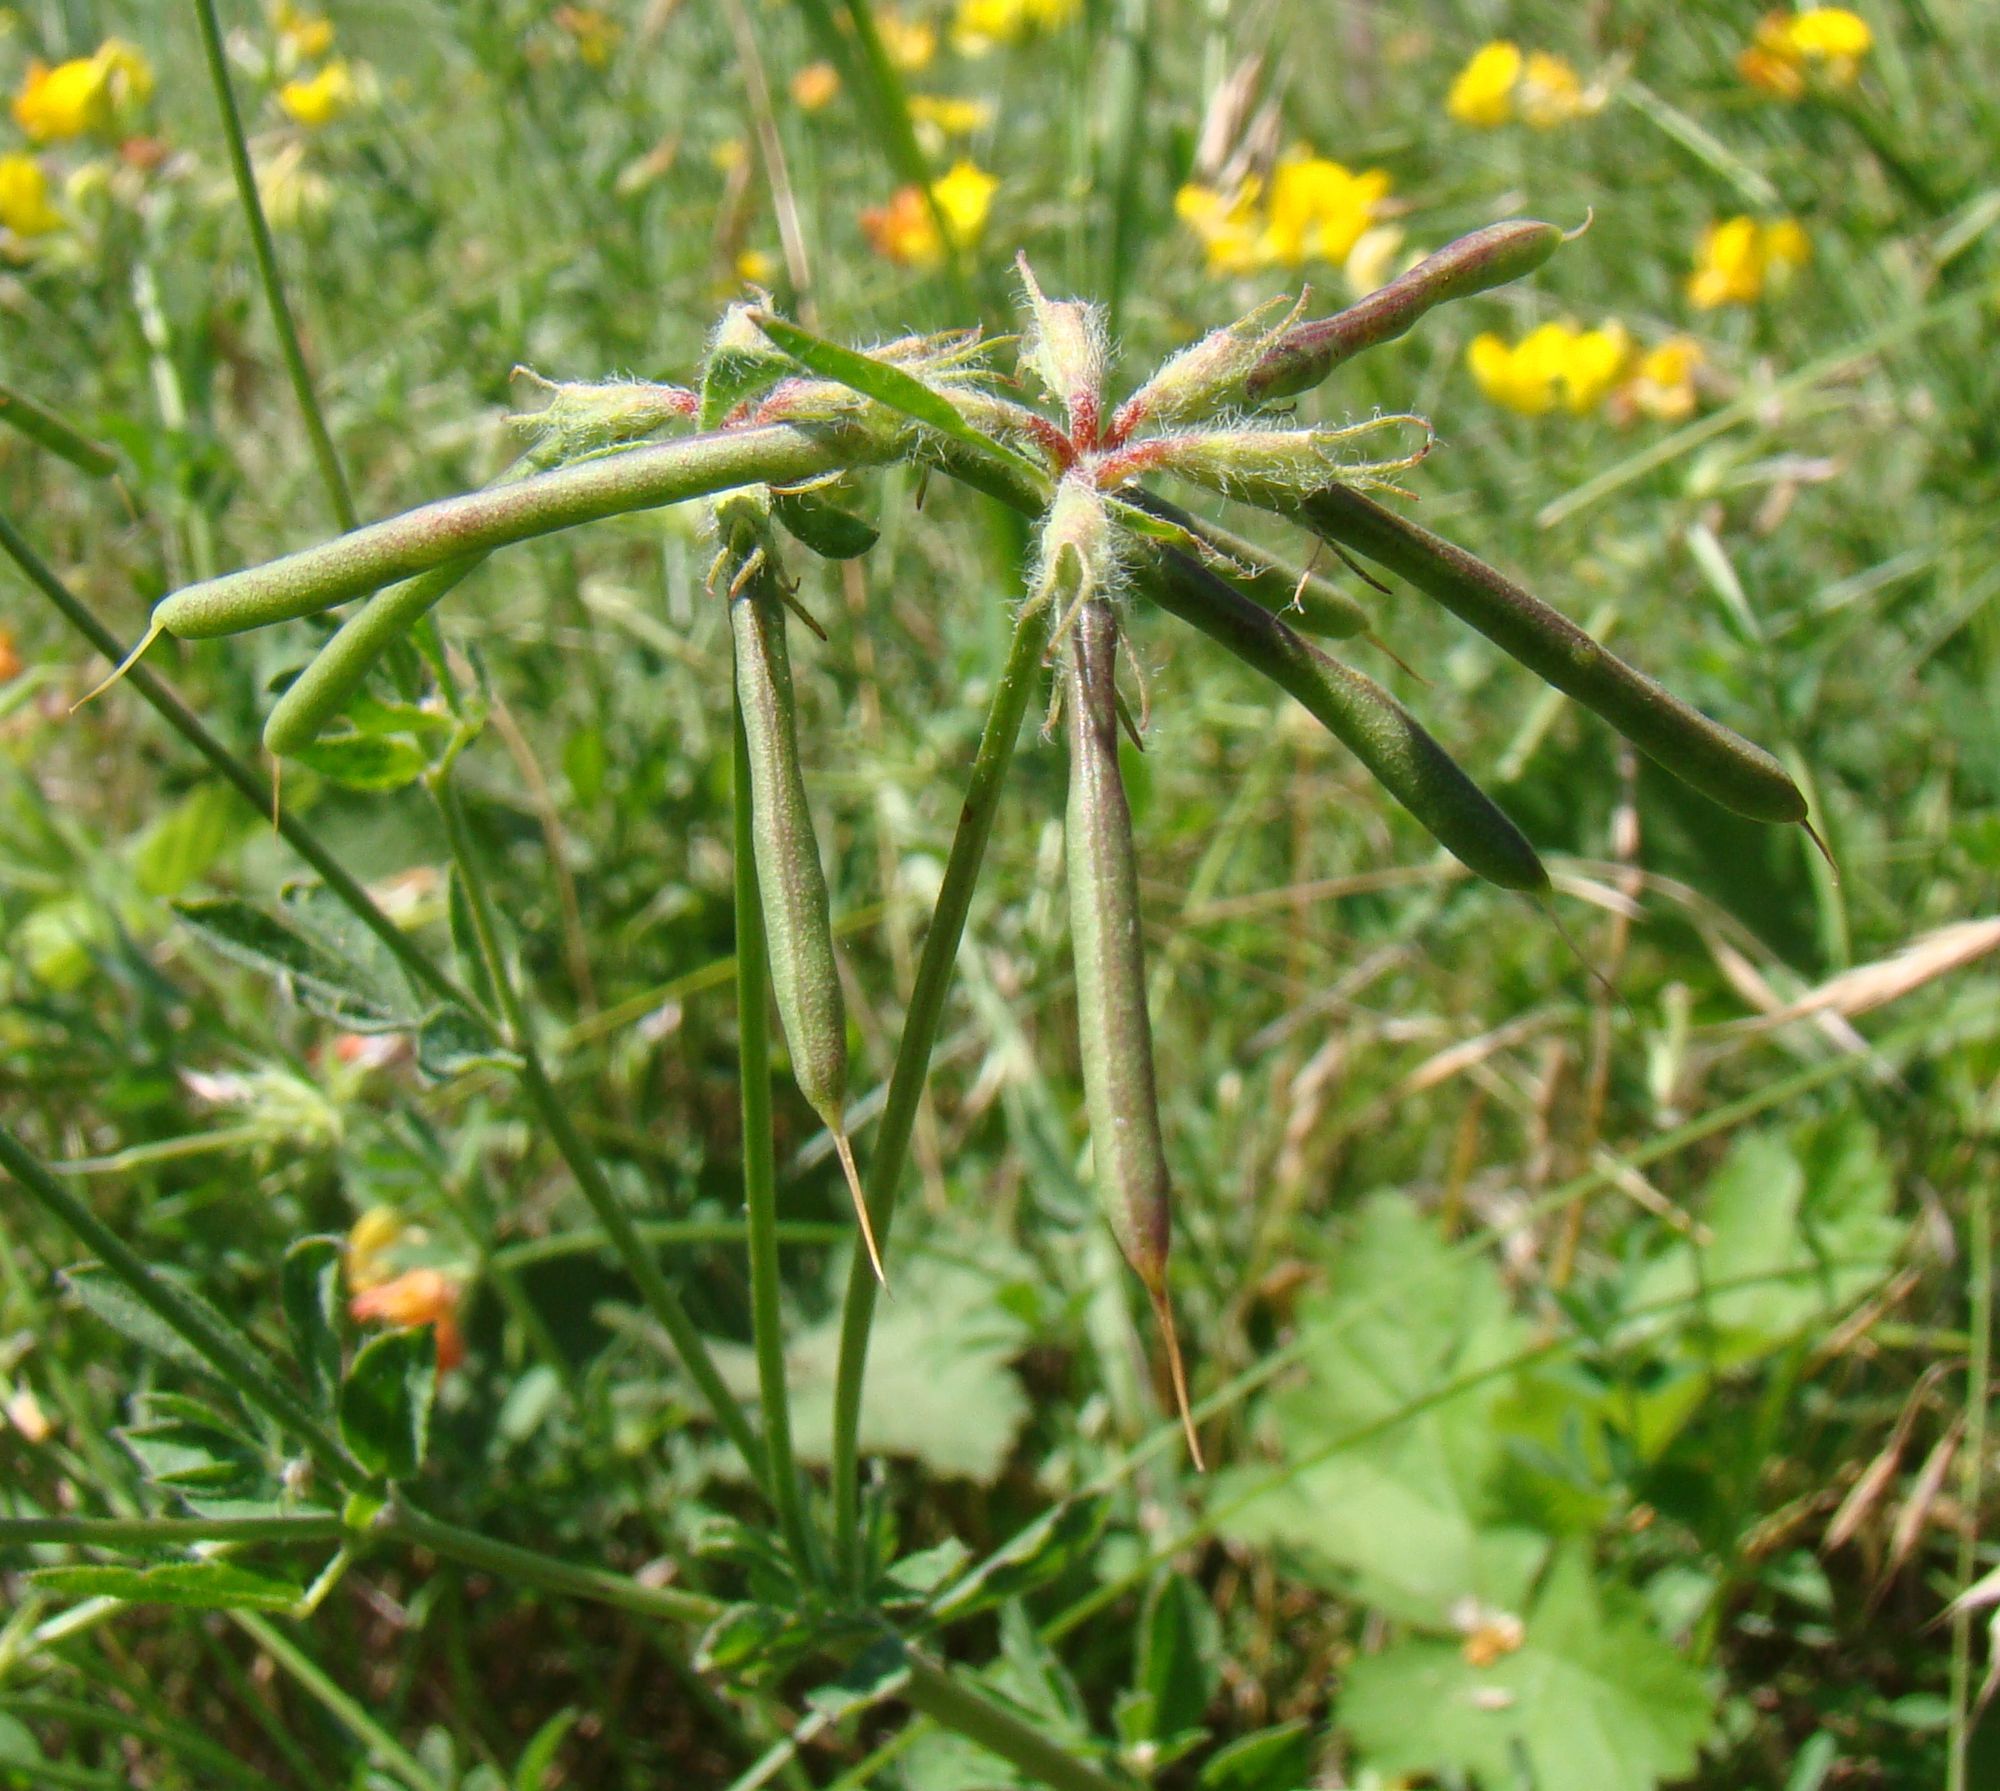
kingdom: Plantae
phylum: Tracheophyta
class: Magnoliopsida
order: Fabales
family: Fabaceae
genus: Lotus
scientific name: Lotus corniculatus
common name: Common bird's-foot-trefoil
